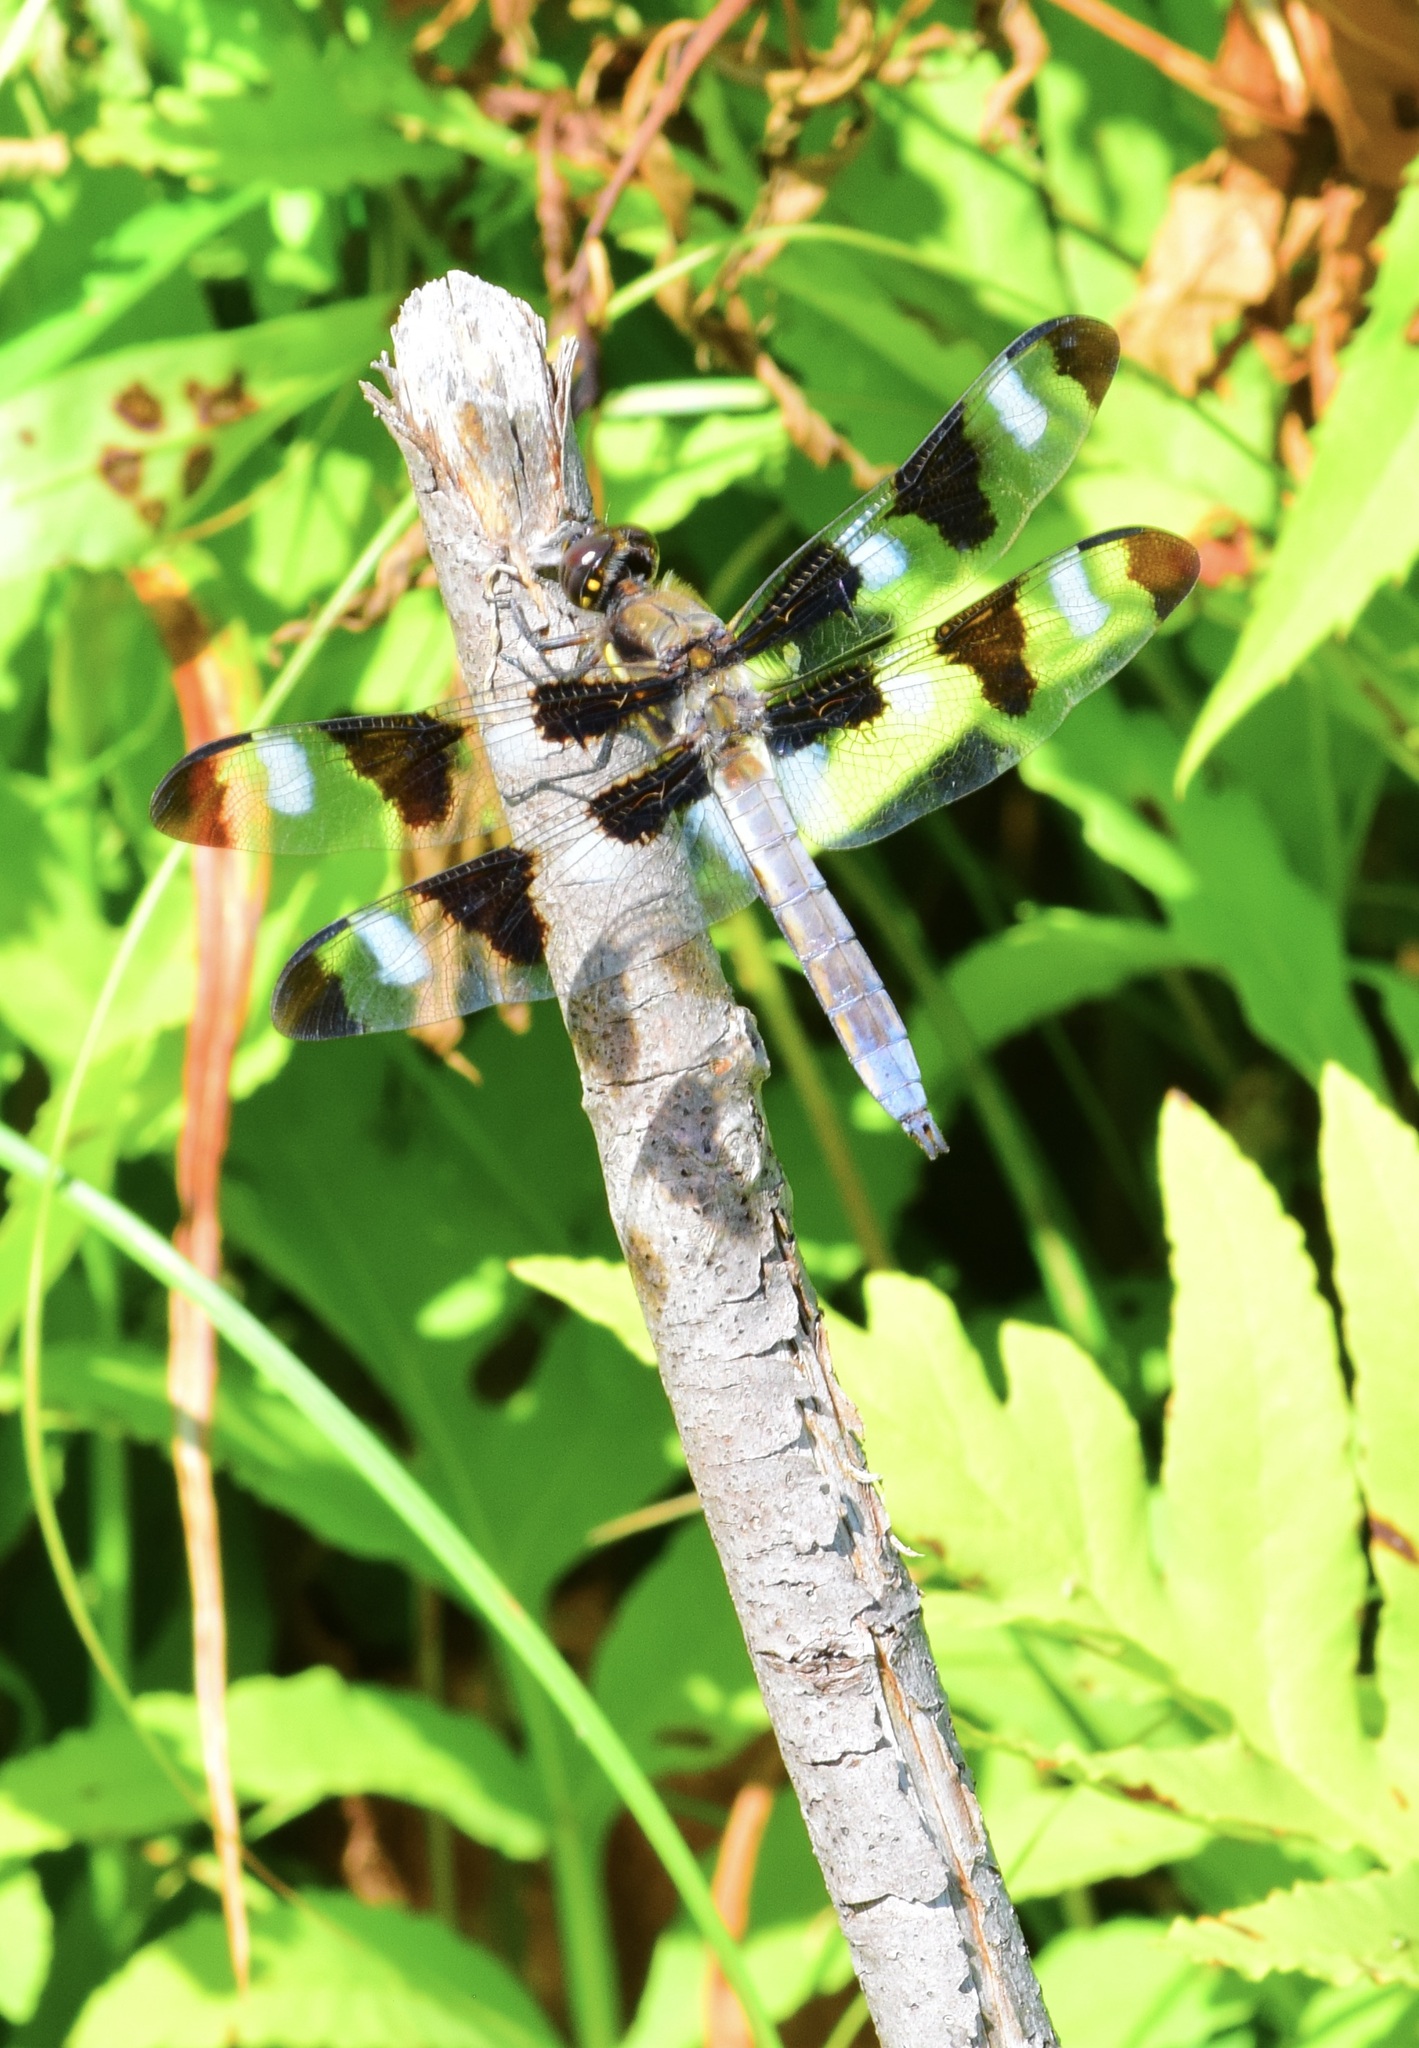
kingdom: Animalia
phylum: Arthropoda
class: Insecta
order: Odonata
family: Libellulidae
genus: Libellula
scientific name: Libellula pulchella
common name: Twelve-spotted skimmer
